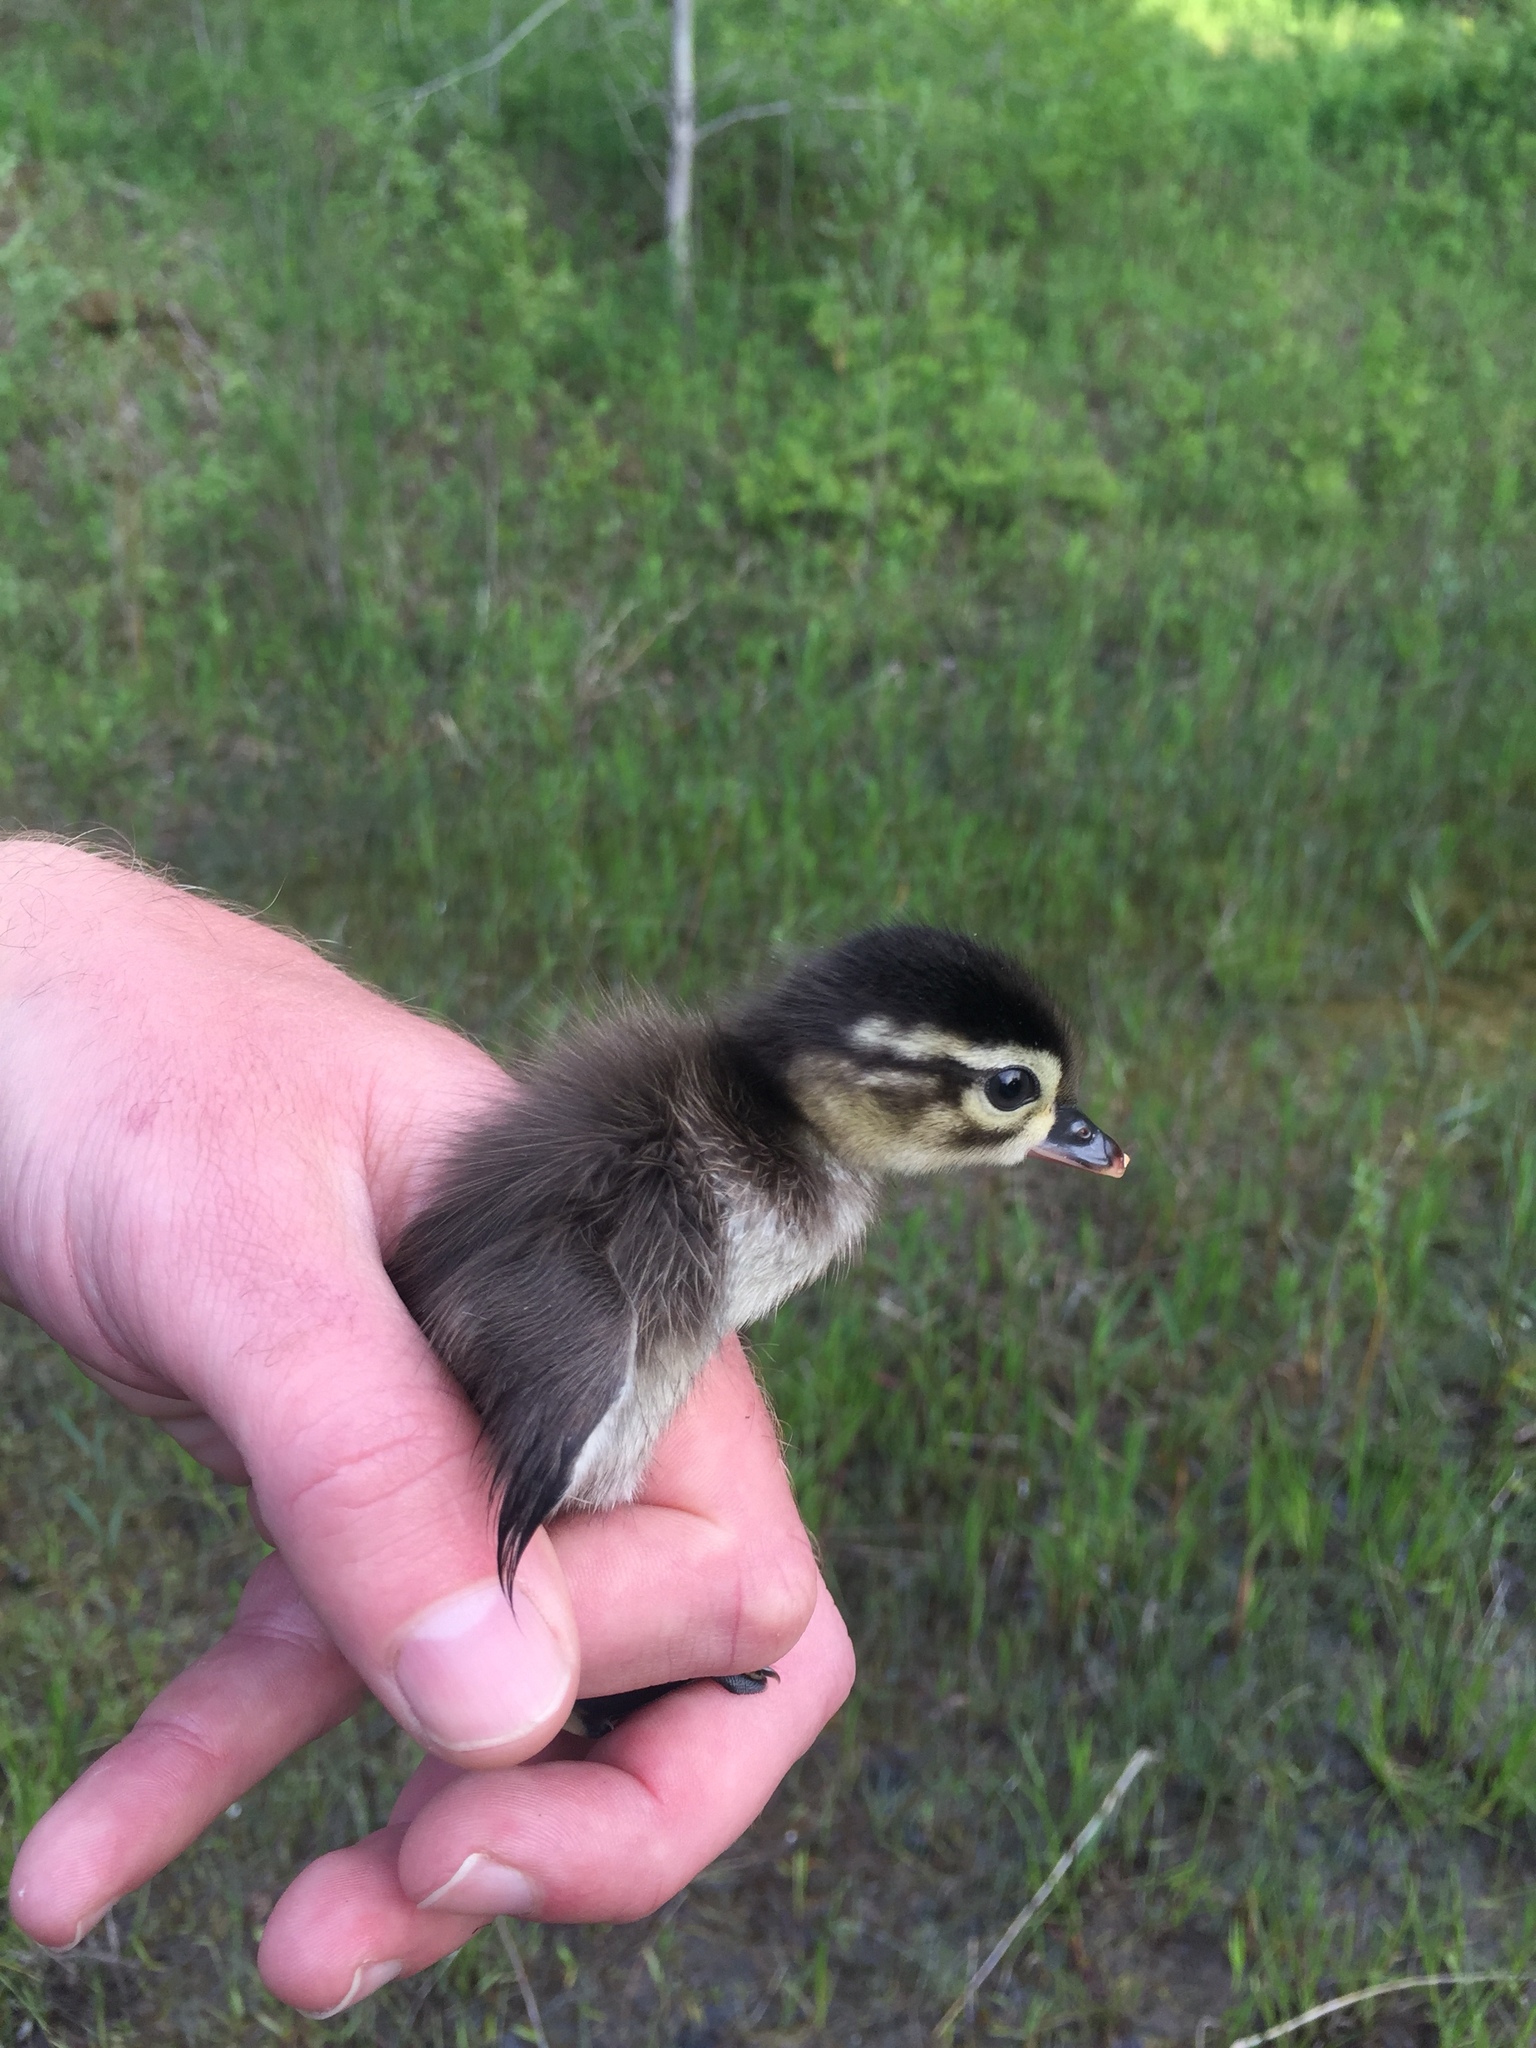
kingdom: Animalia
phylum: Chordata
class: Aves
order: Anseriformes
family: Anatidae
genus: Aix
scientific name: Aix sponsa
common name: Wood duck
